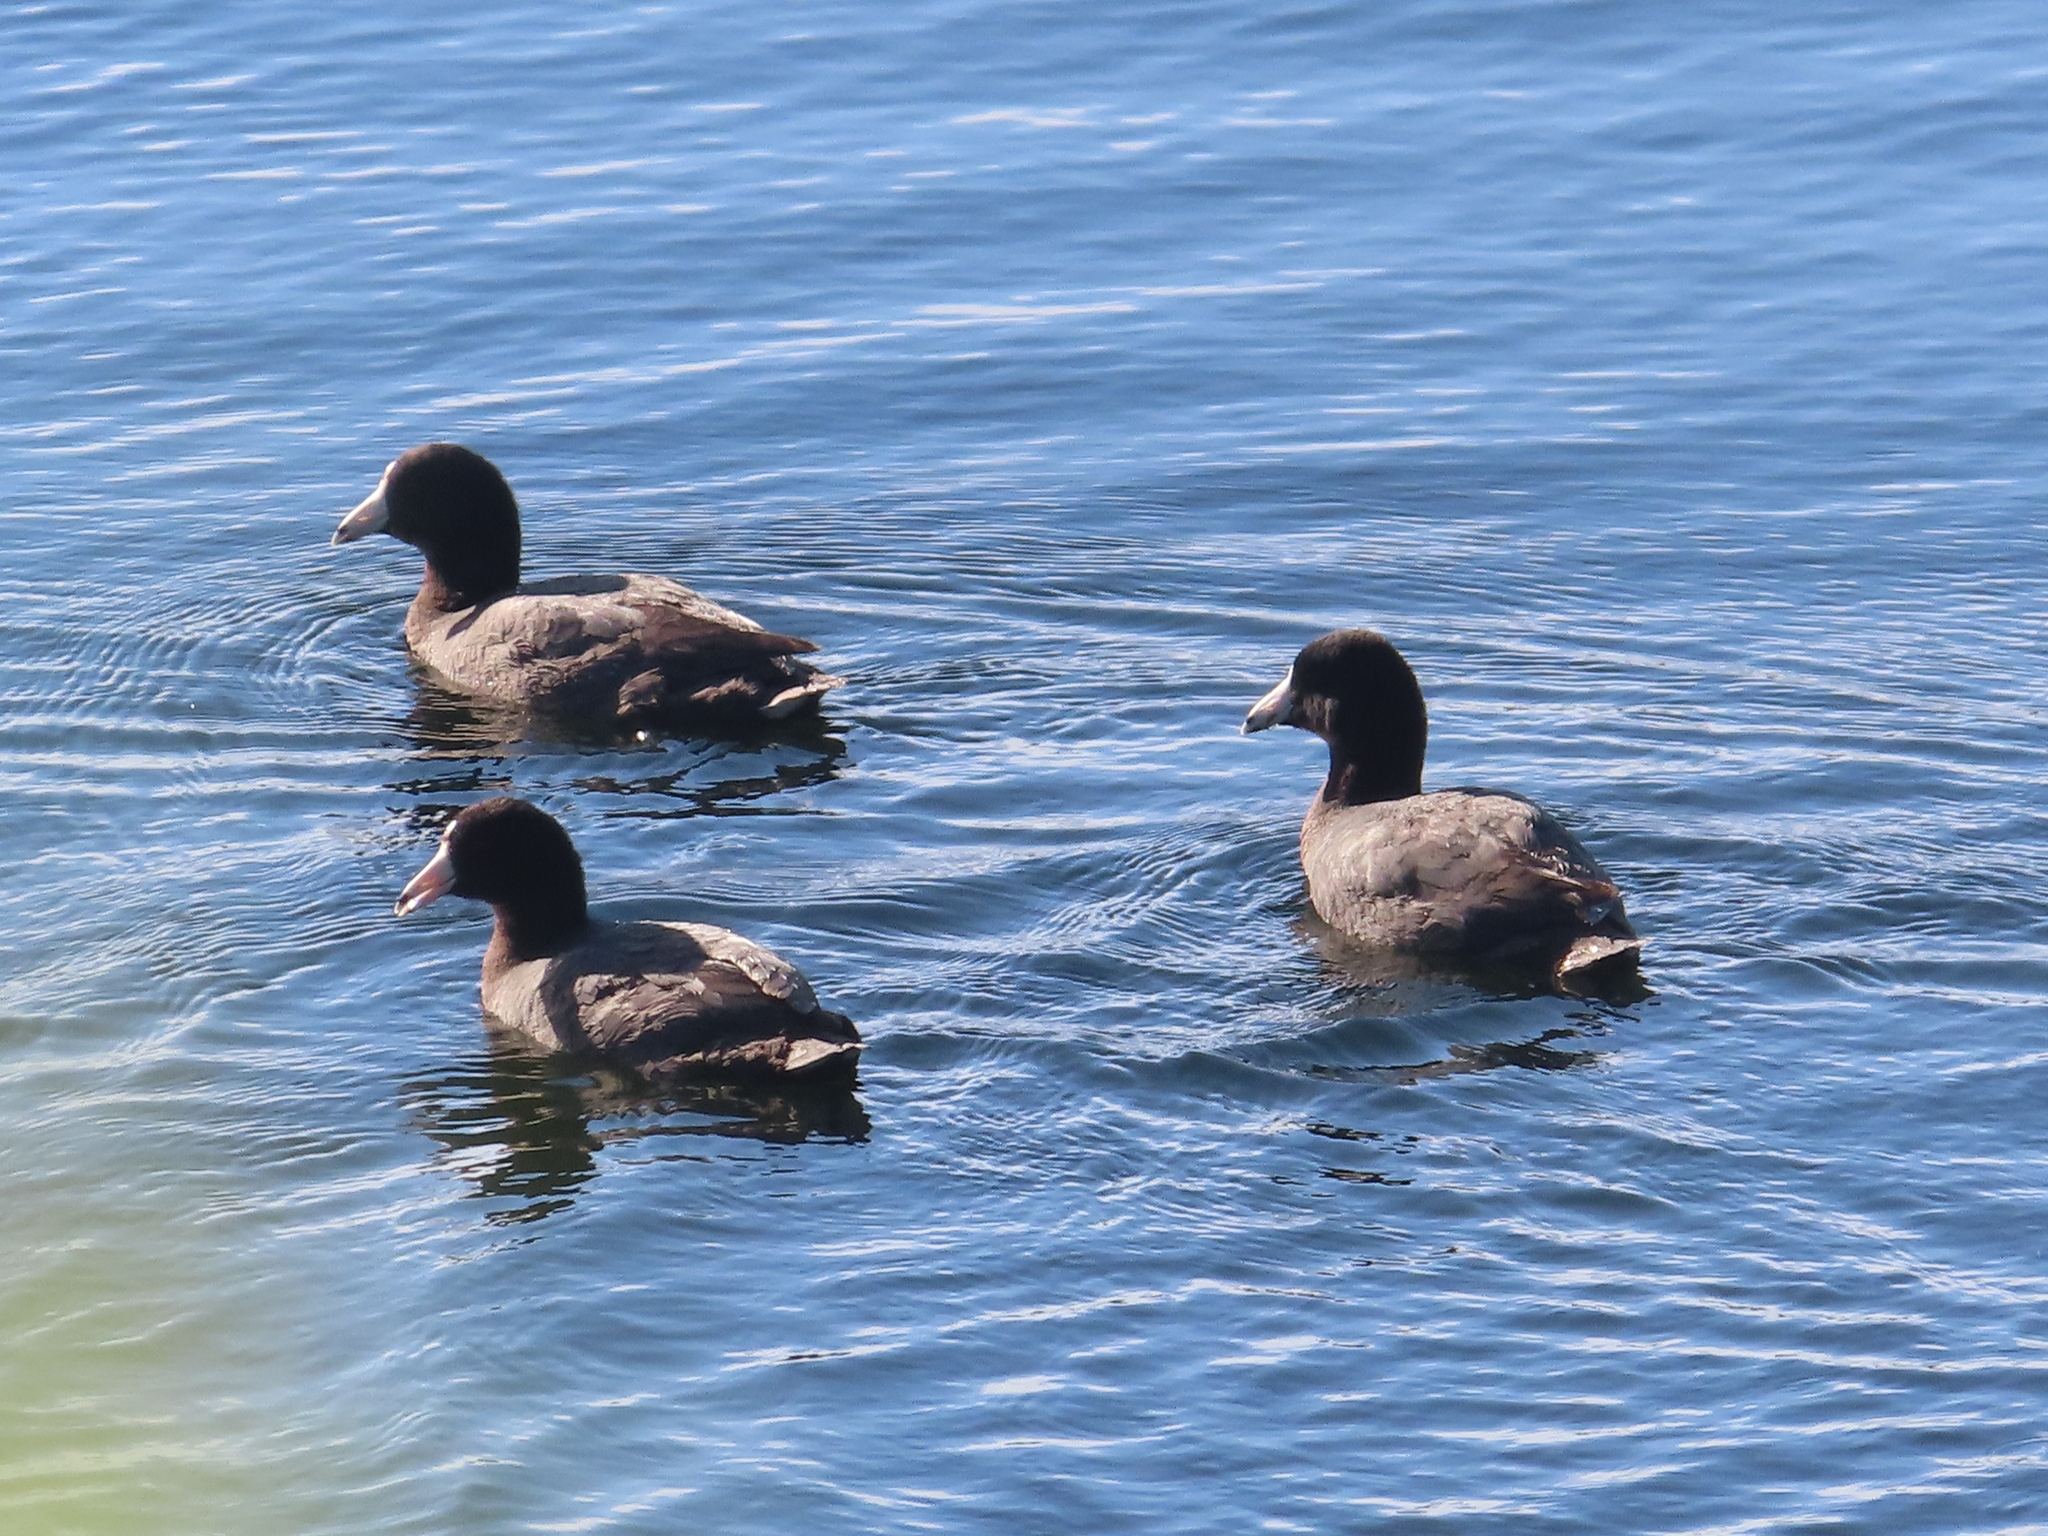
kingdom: Animalia
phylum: Chordata
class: Aves
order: Gruiformes
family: Rallidae
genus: Fulica
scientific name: Fulica americana
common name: American coot
